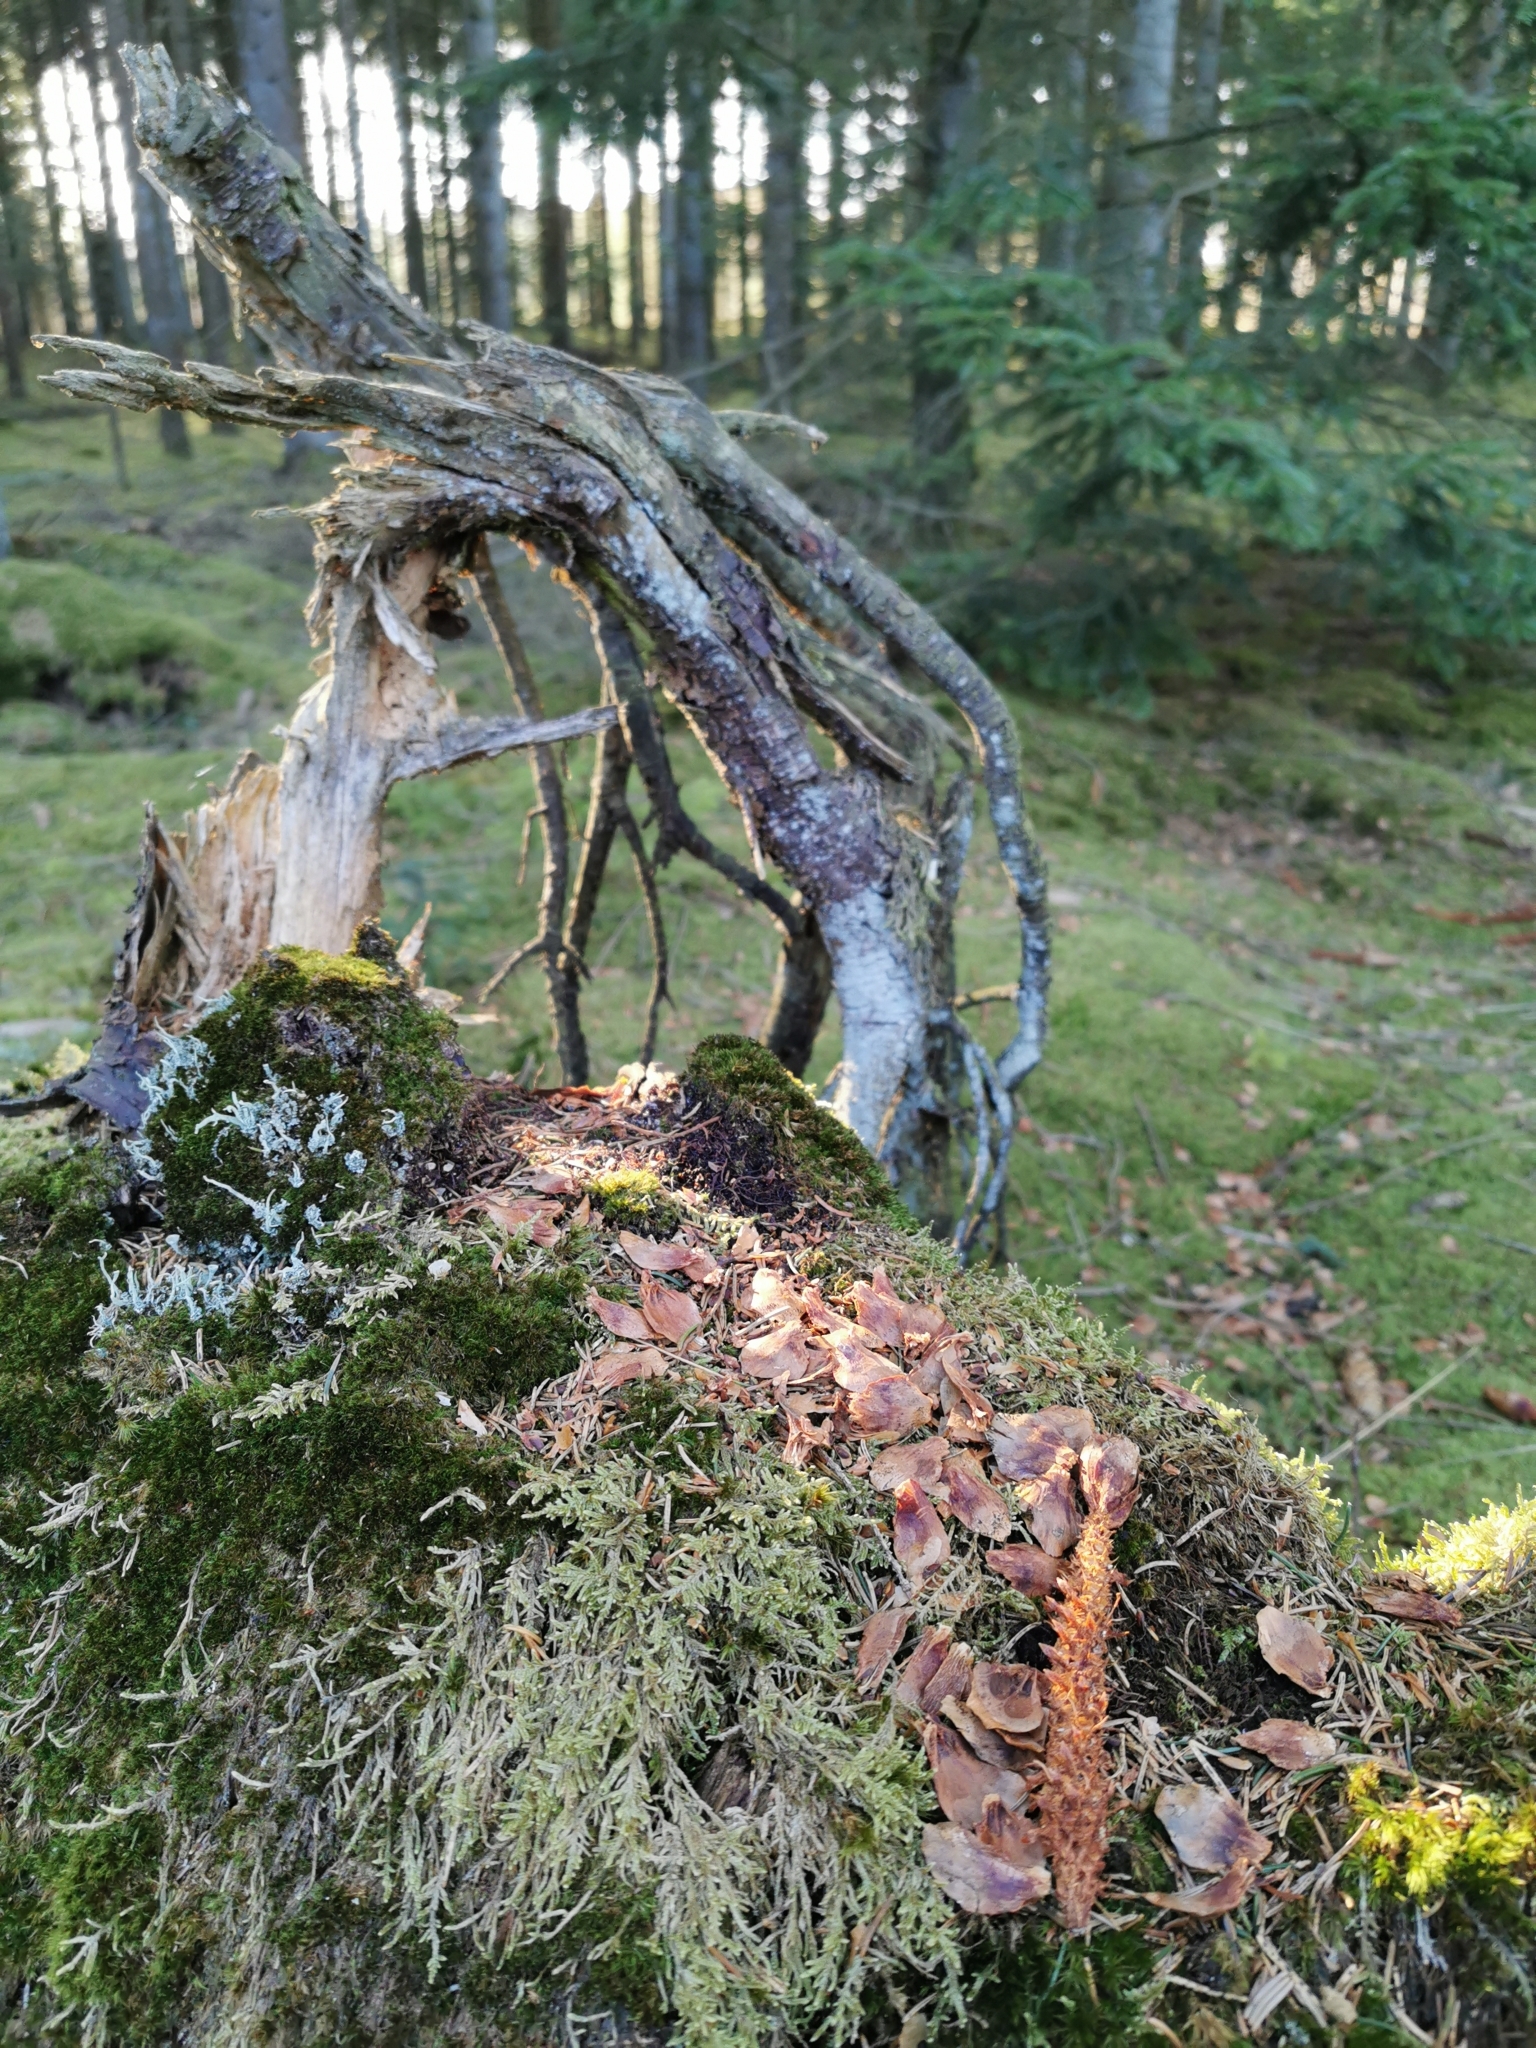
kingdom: Animalia
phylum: Chordata
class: Mammalia
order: Rodentia
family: Sciuridae
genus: Sciurus
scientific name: Sciurus vulgaris
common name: Eurasian red squirrel
